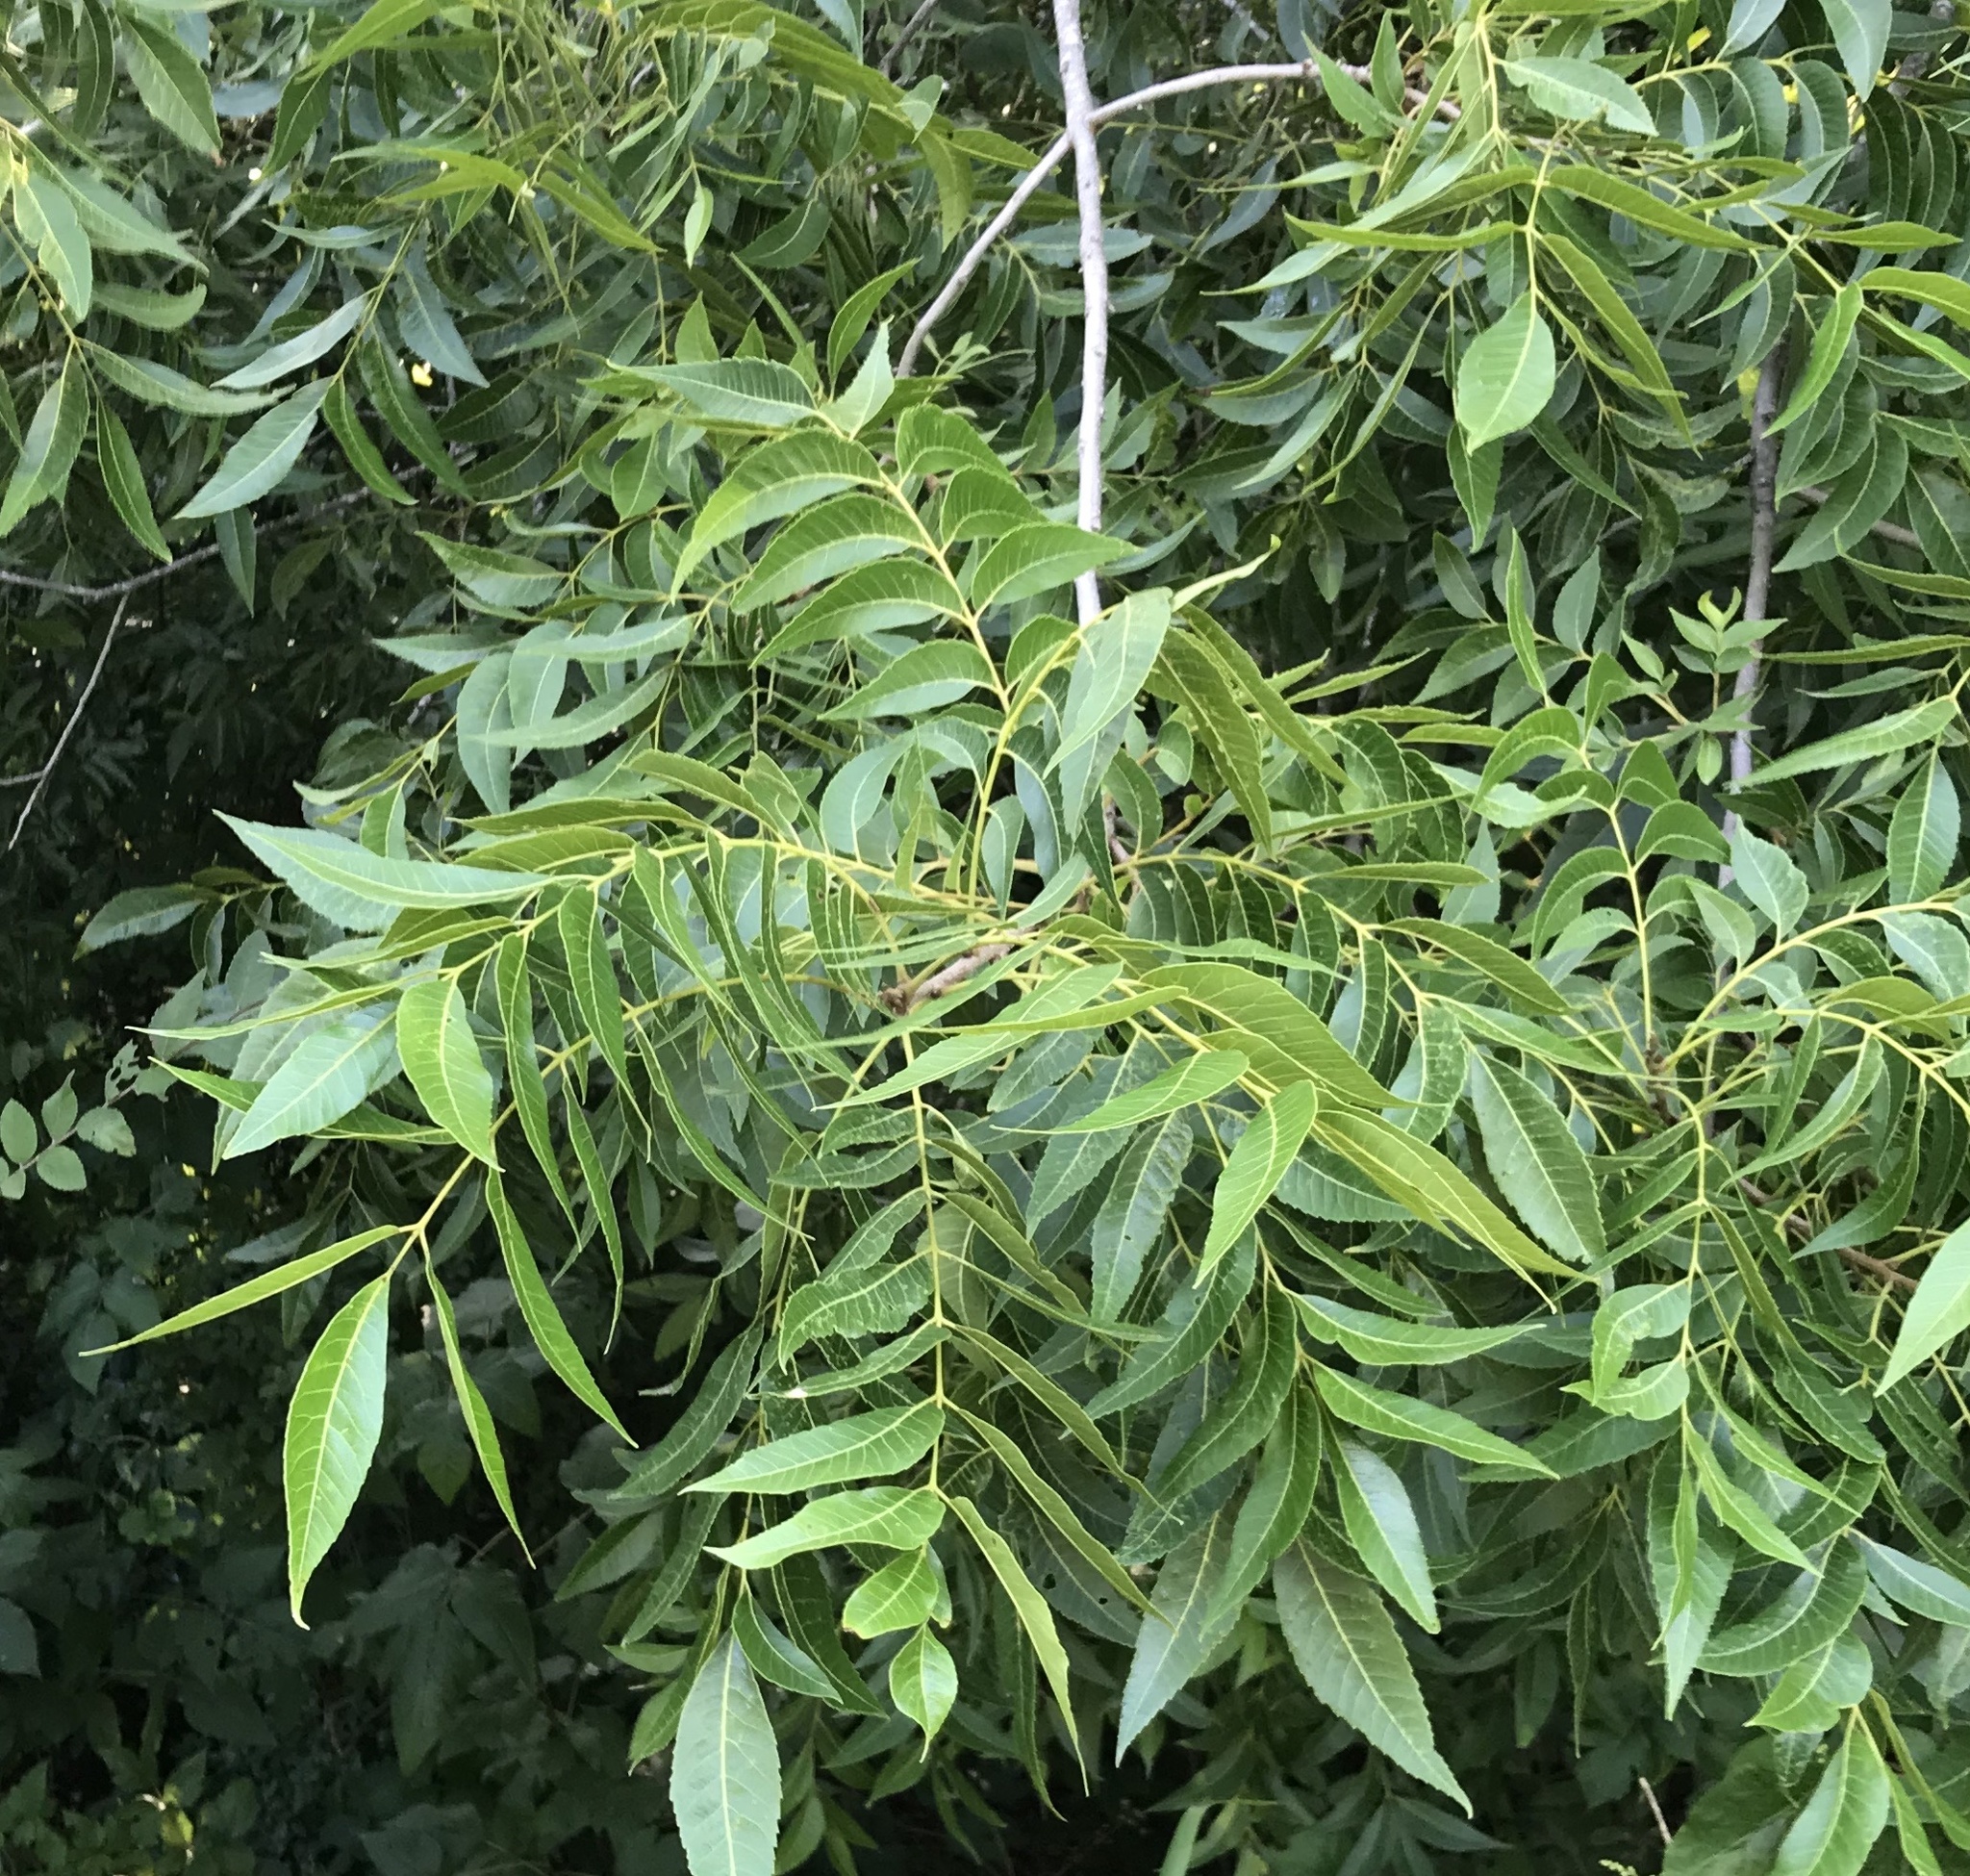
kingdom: Plantae
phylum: Tracheophyta
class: Magnoliopsida
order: Fagales
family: Juglandaceae
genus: Carya
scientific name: Carya illinoinensis
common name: Pecan
